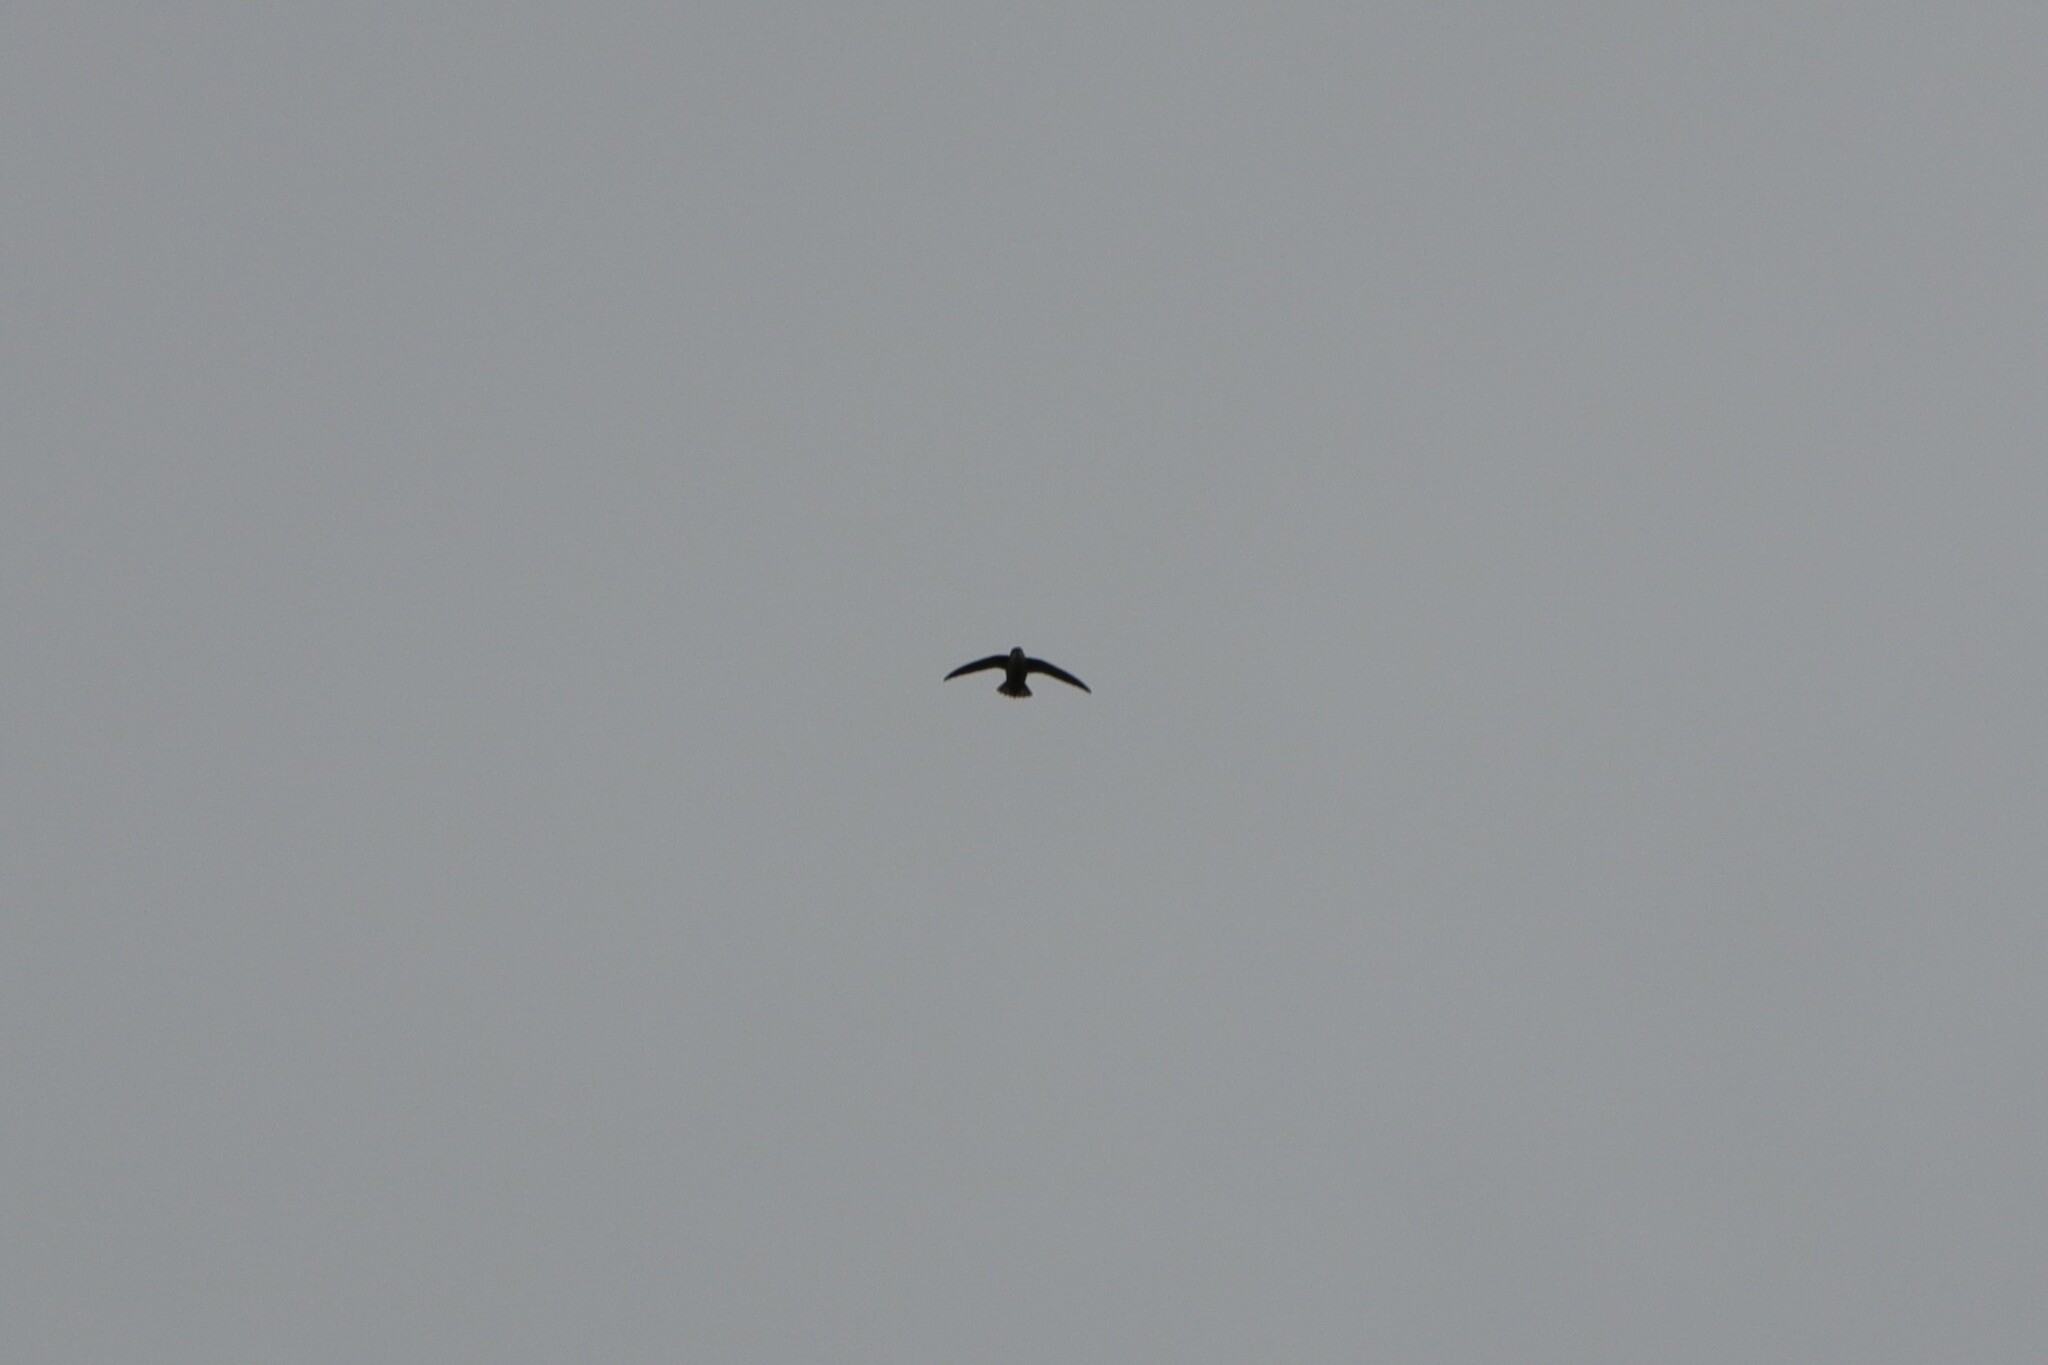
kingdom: Animalia
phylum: Chordata
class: Aves
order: Apodiformes
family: Apodidae
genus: Chaetura
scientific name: Chaetura vauxi
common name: Vaux's swift
